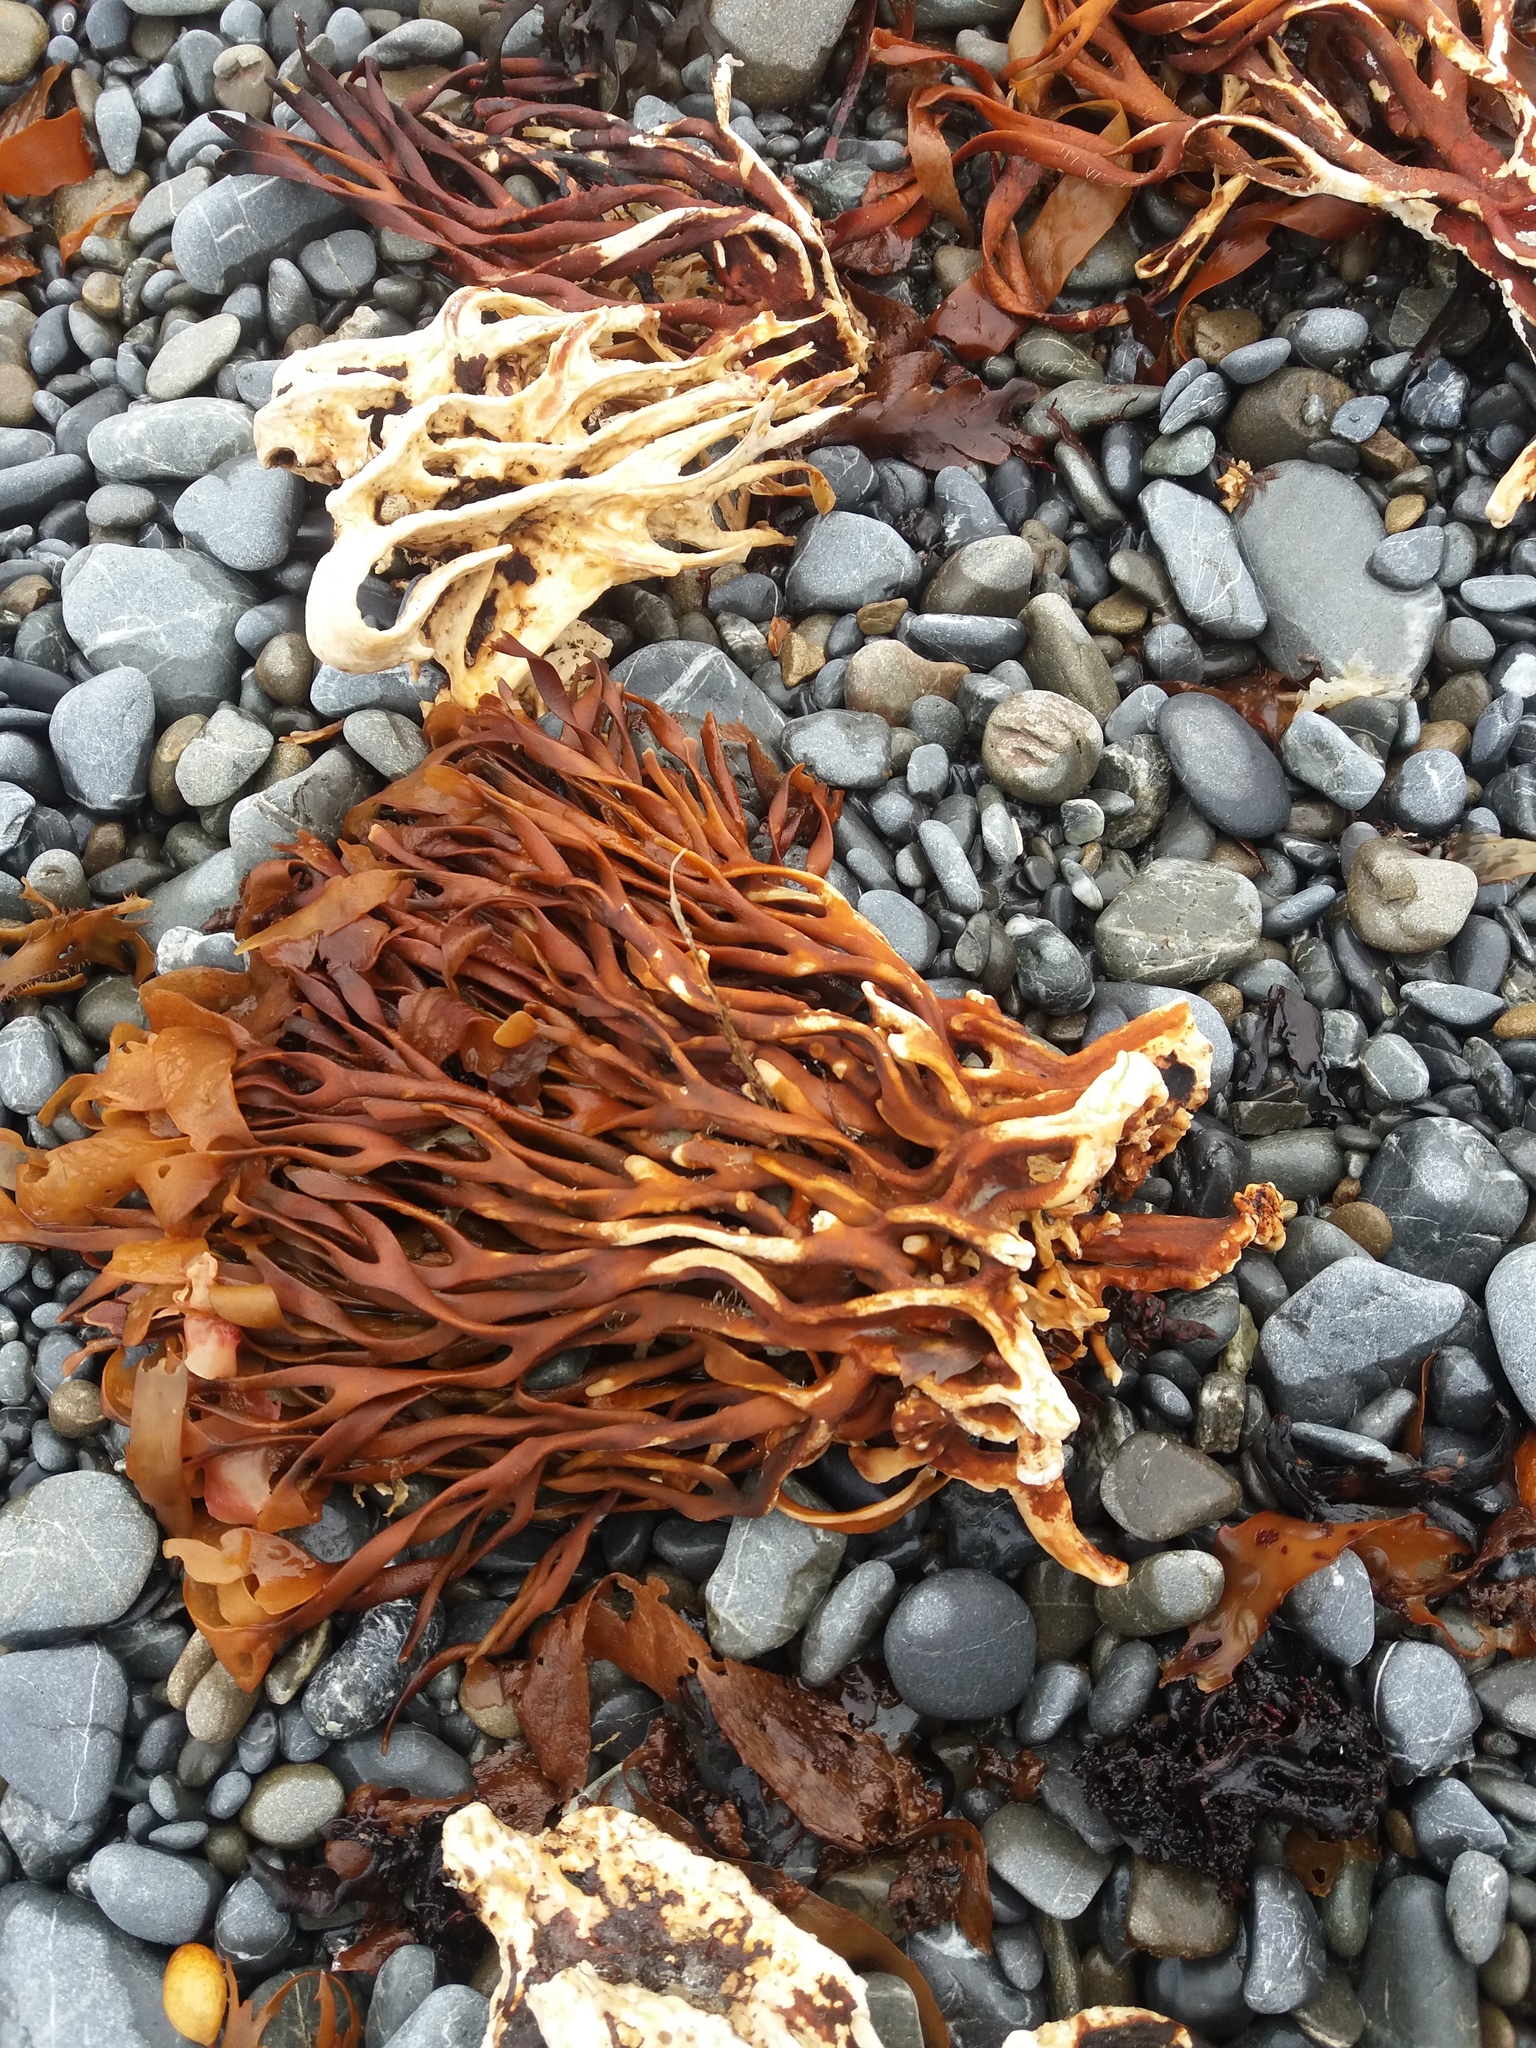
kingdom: Chromista
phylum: Ochrophyta
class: Phaeophyceae
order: Laminariales
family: Lessoniaceae
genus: Lessonia
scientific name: Lessonia variegata
